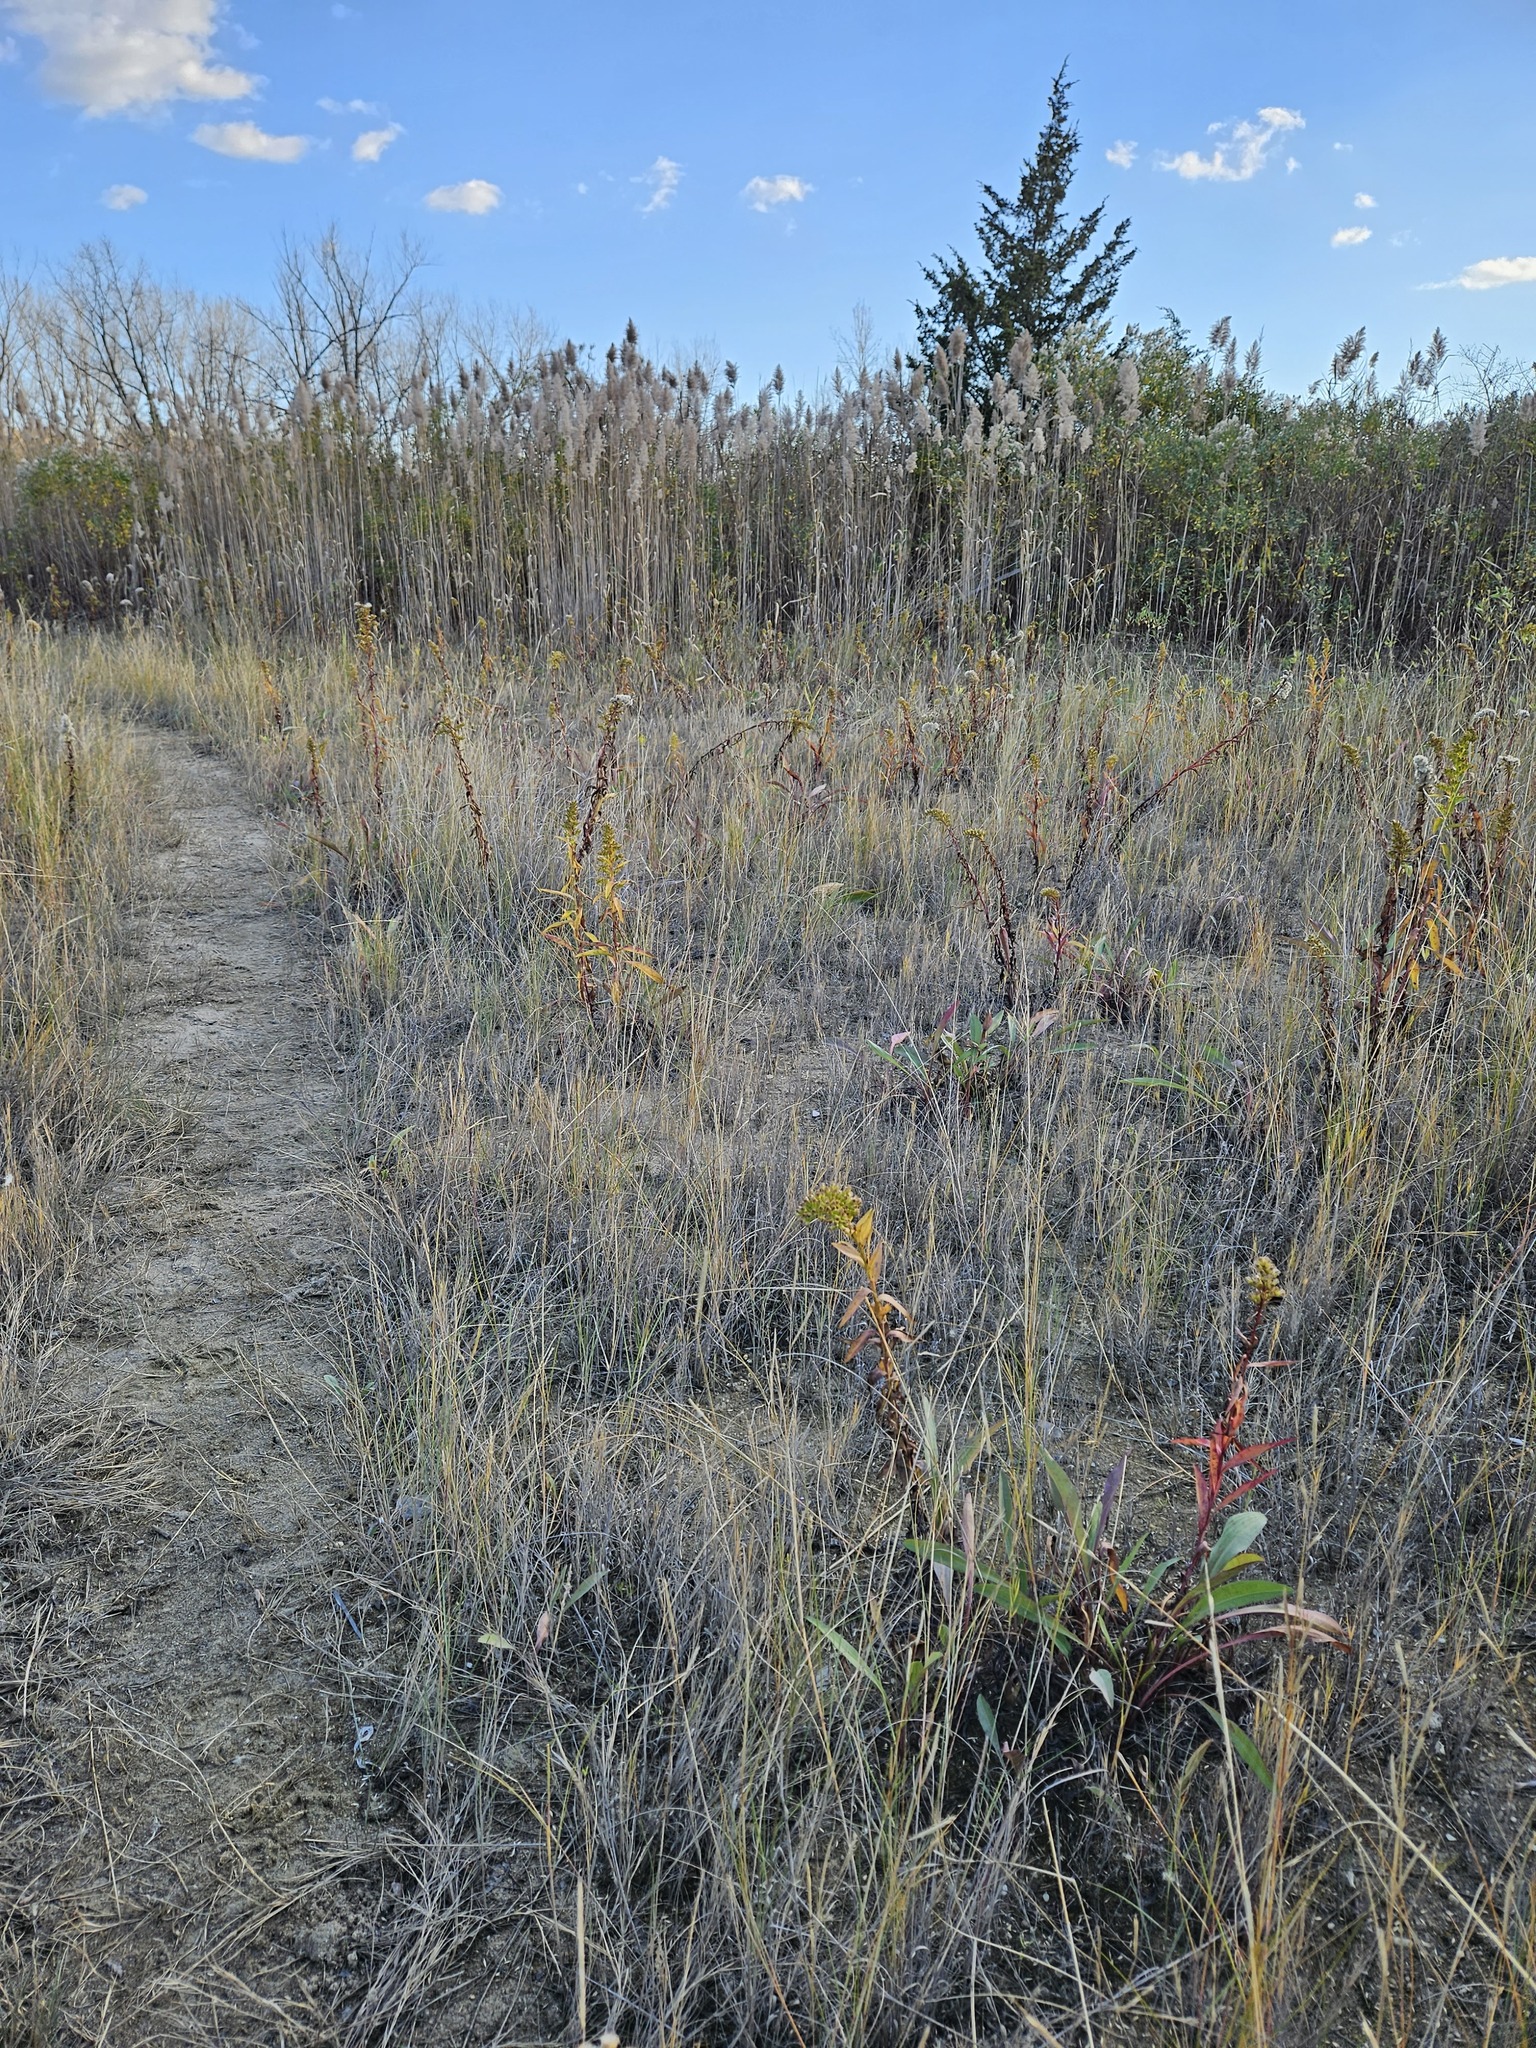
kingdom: Plantae
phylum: Tracheophyta
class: Magnoliopsida
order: Asterales
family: Asteraceae
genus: Solidago
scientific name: Solidago sempervirens
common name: Salt-marsh goldenrod
